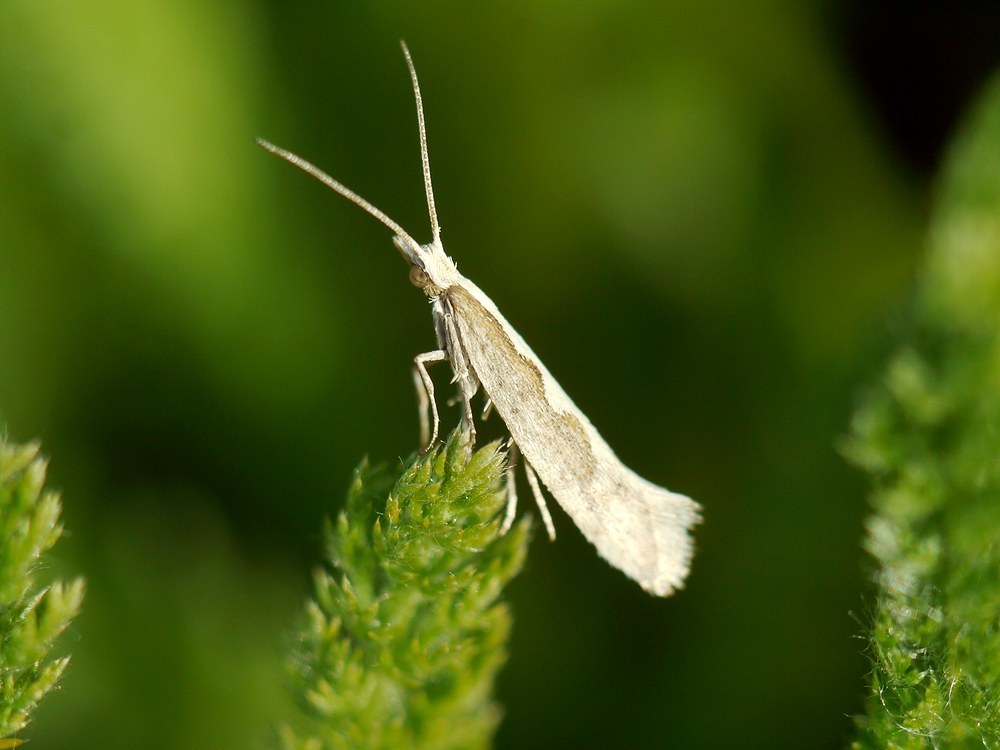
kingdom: Animalia
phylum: Arthropoda
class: Insecta
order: Lepidoptera
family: Plutellidae
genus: Plutella
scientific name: Plutella xylostella
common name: Diamond-back moth
